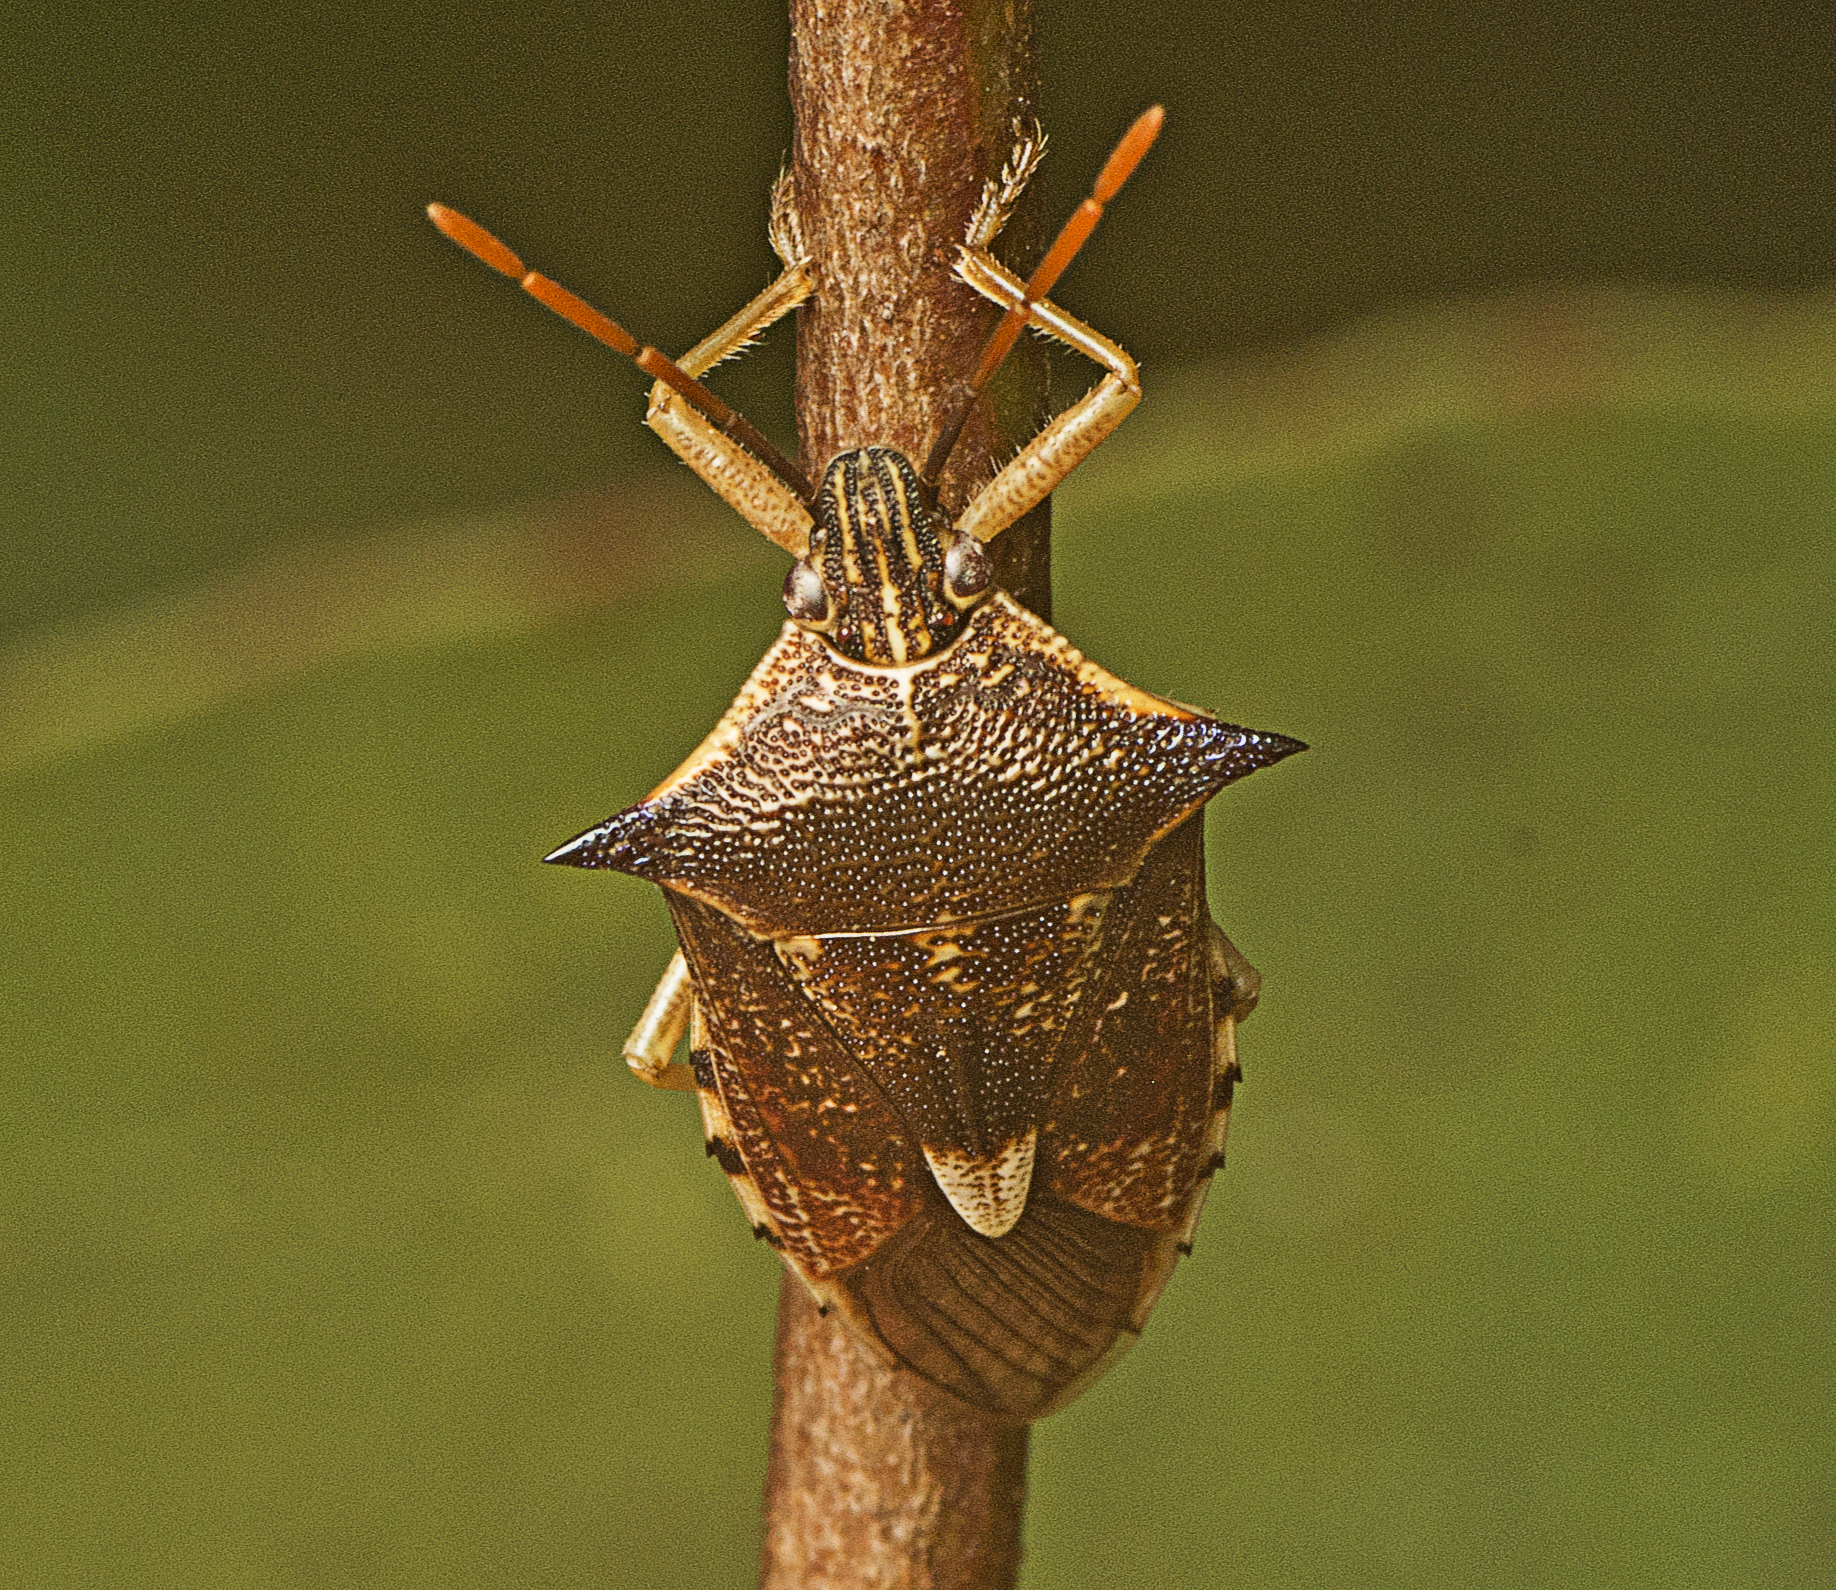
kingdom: Animalia
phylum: Arthropoda
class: Insecta
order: Hemiptera
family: Pentatomidae
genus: Oechalia
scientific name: Oechalia schellenbergii
